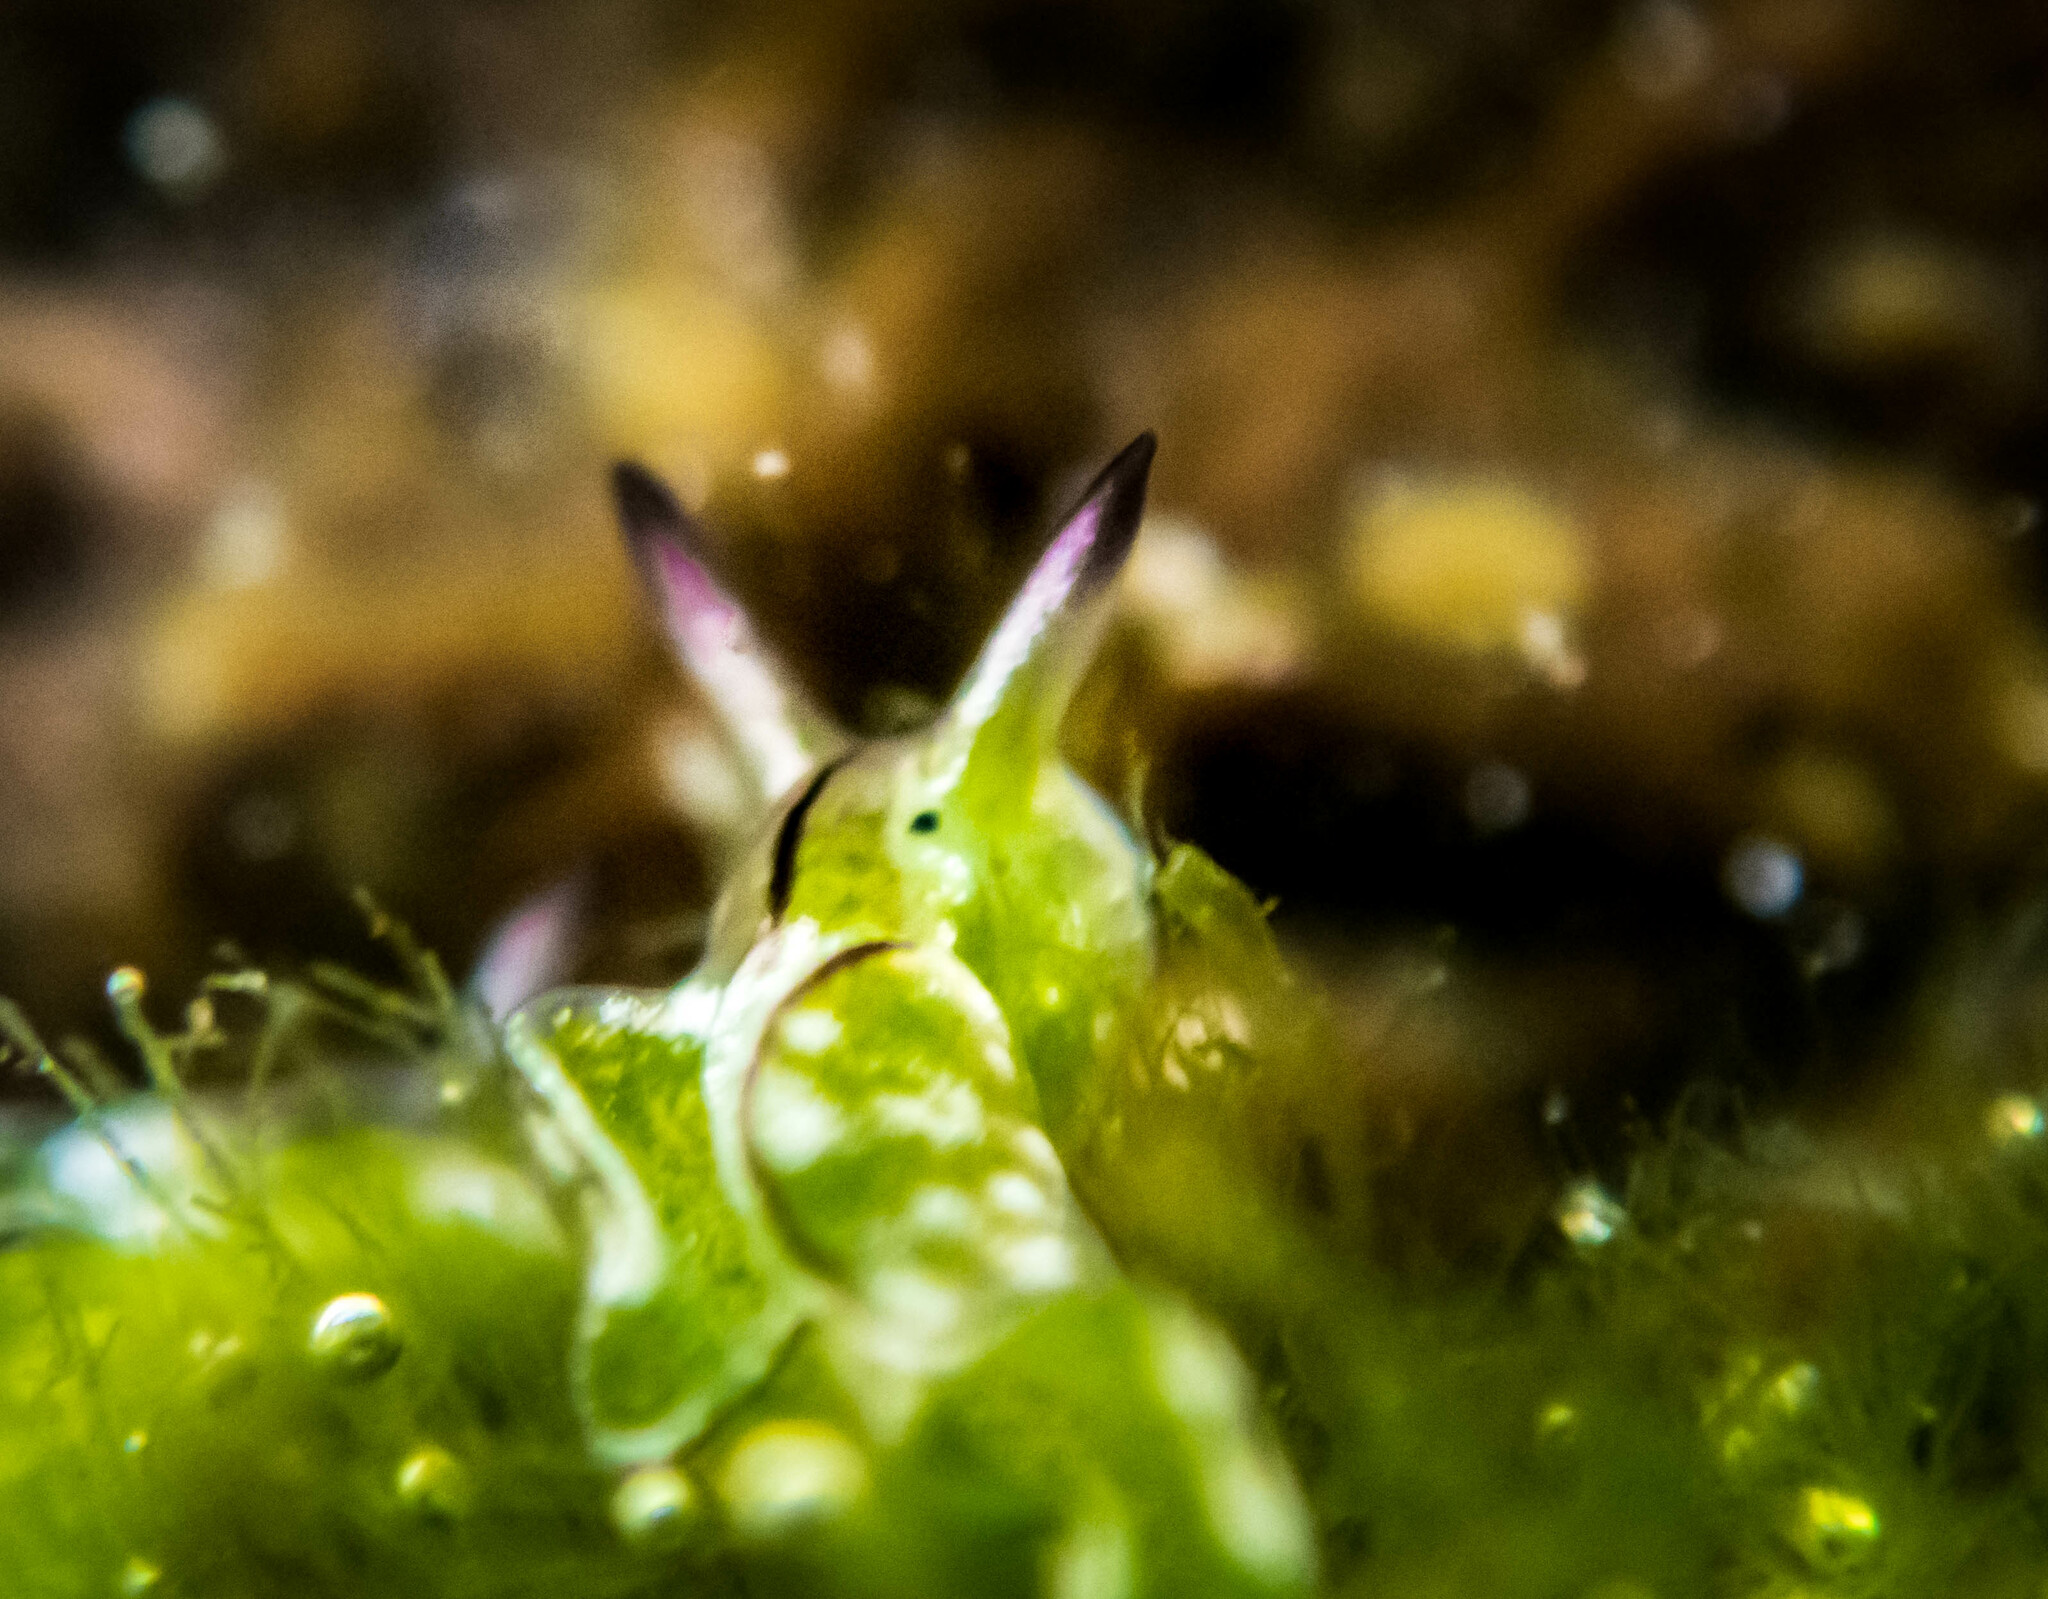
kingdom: Animalia
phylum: Mollusca
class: Gastropoda
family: Plakobranchidae
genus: Elysia
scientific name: Elysia coodgeensis
